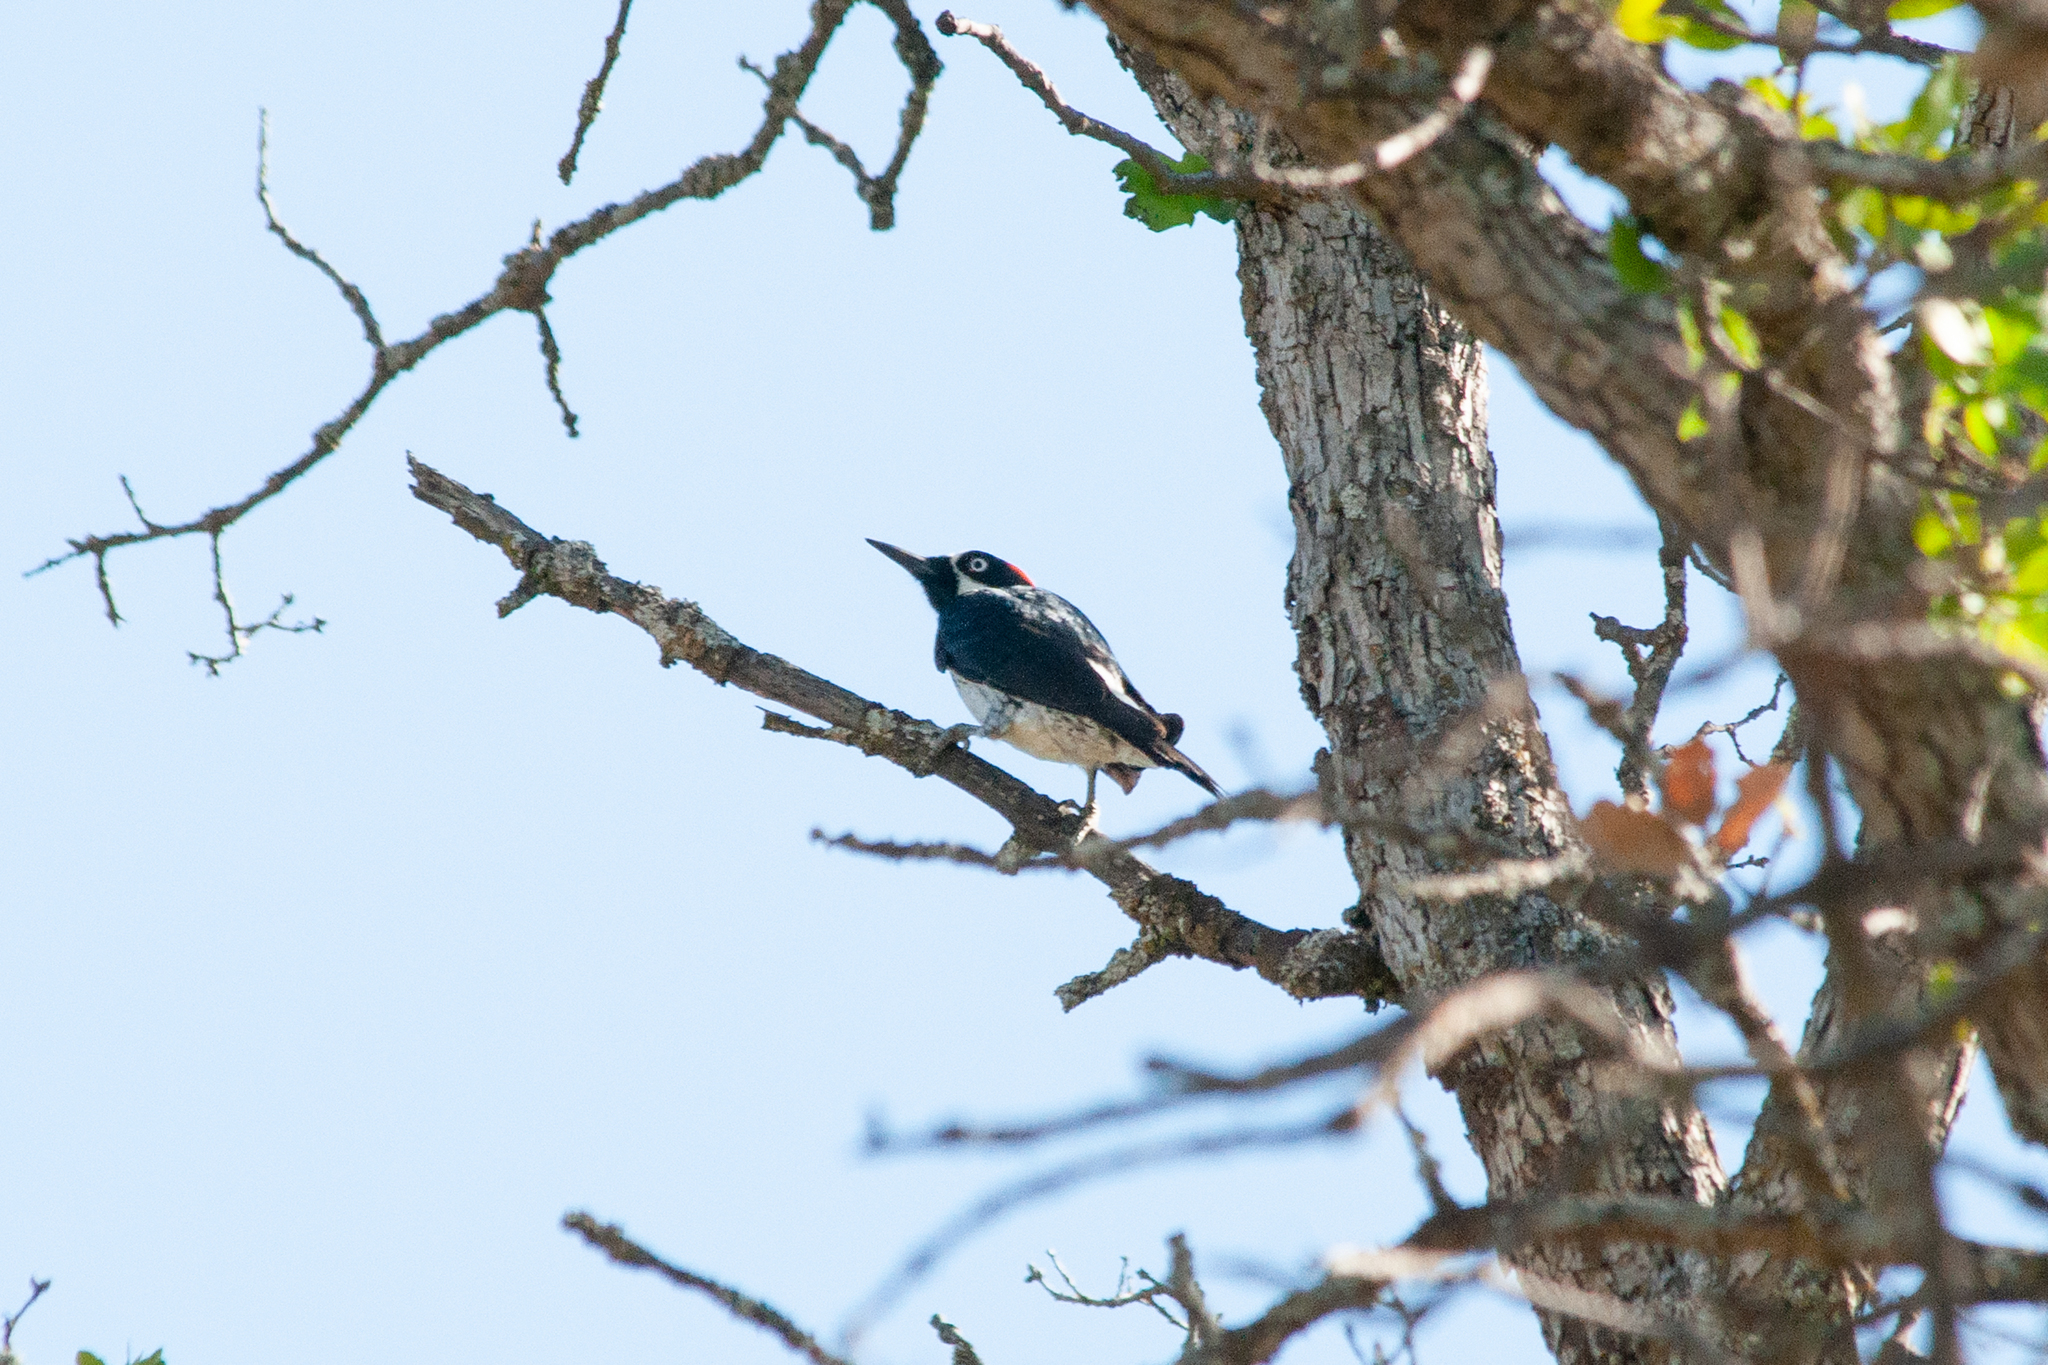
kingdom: Animalia
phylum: Chordata
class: Aves
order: Piciformes
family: Picidae
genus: Melanerpes
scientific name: Melanerpes formicivorus
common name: Acorn woodpecker
